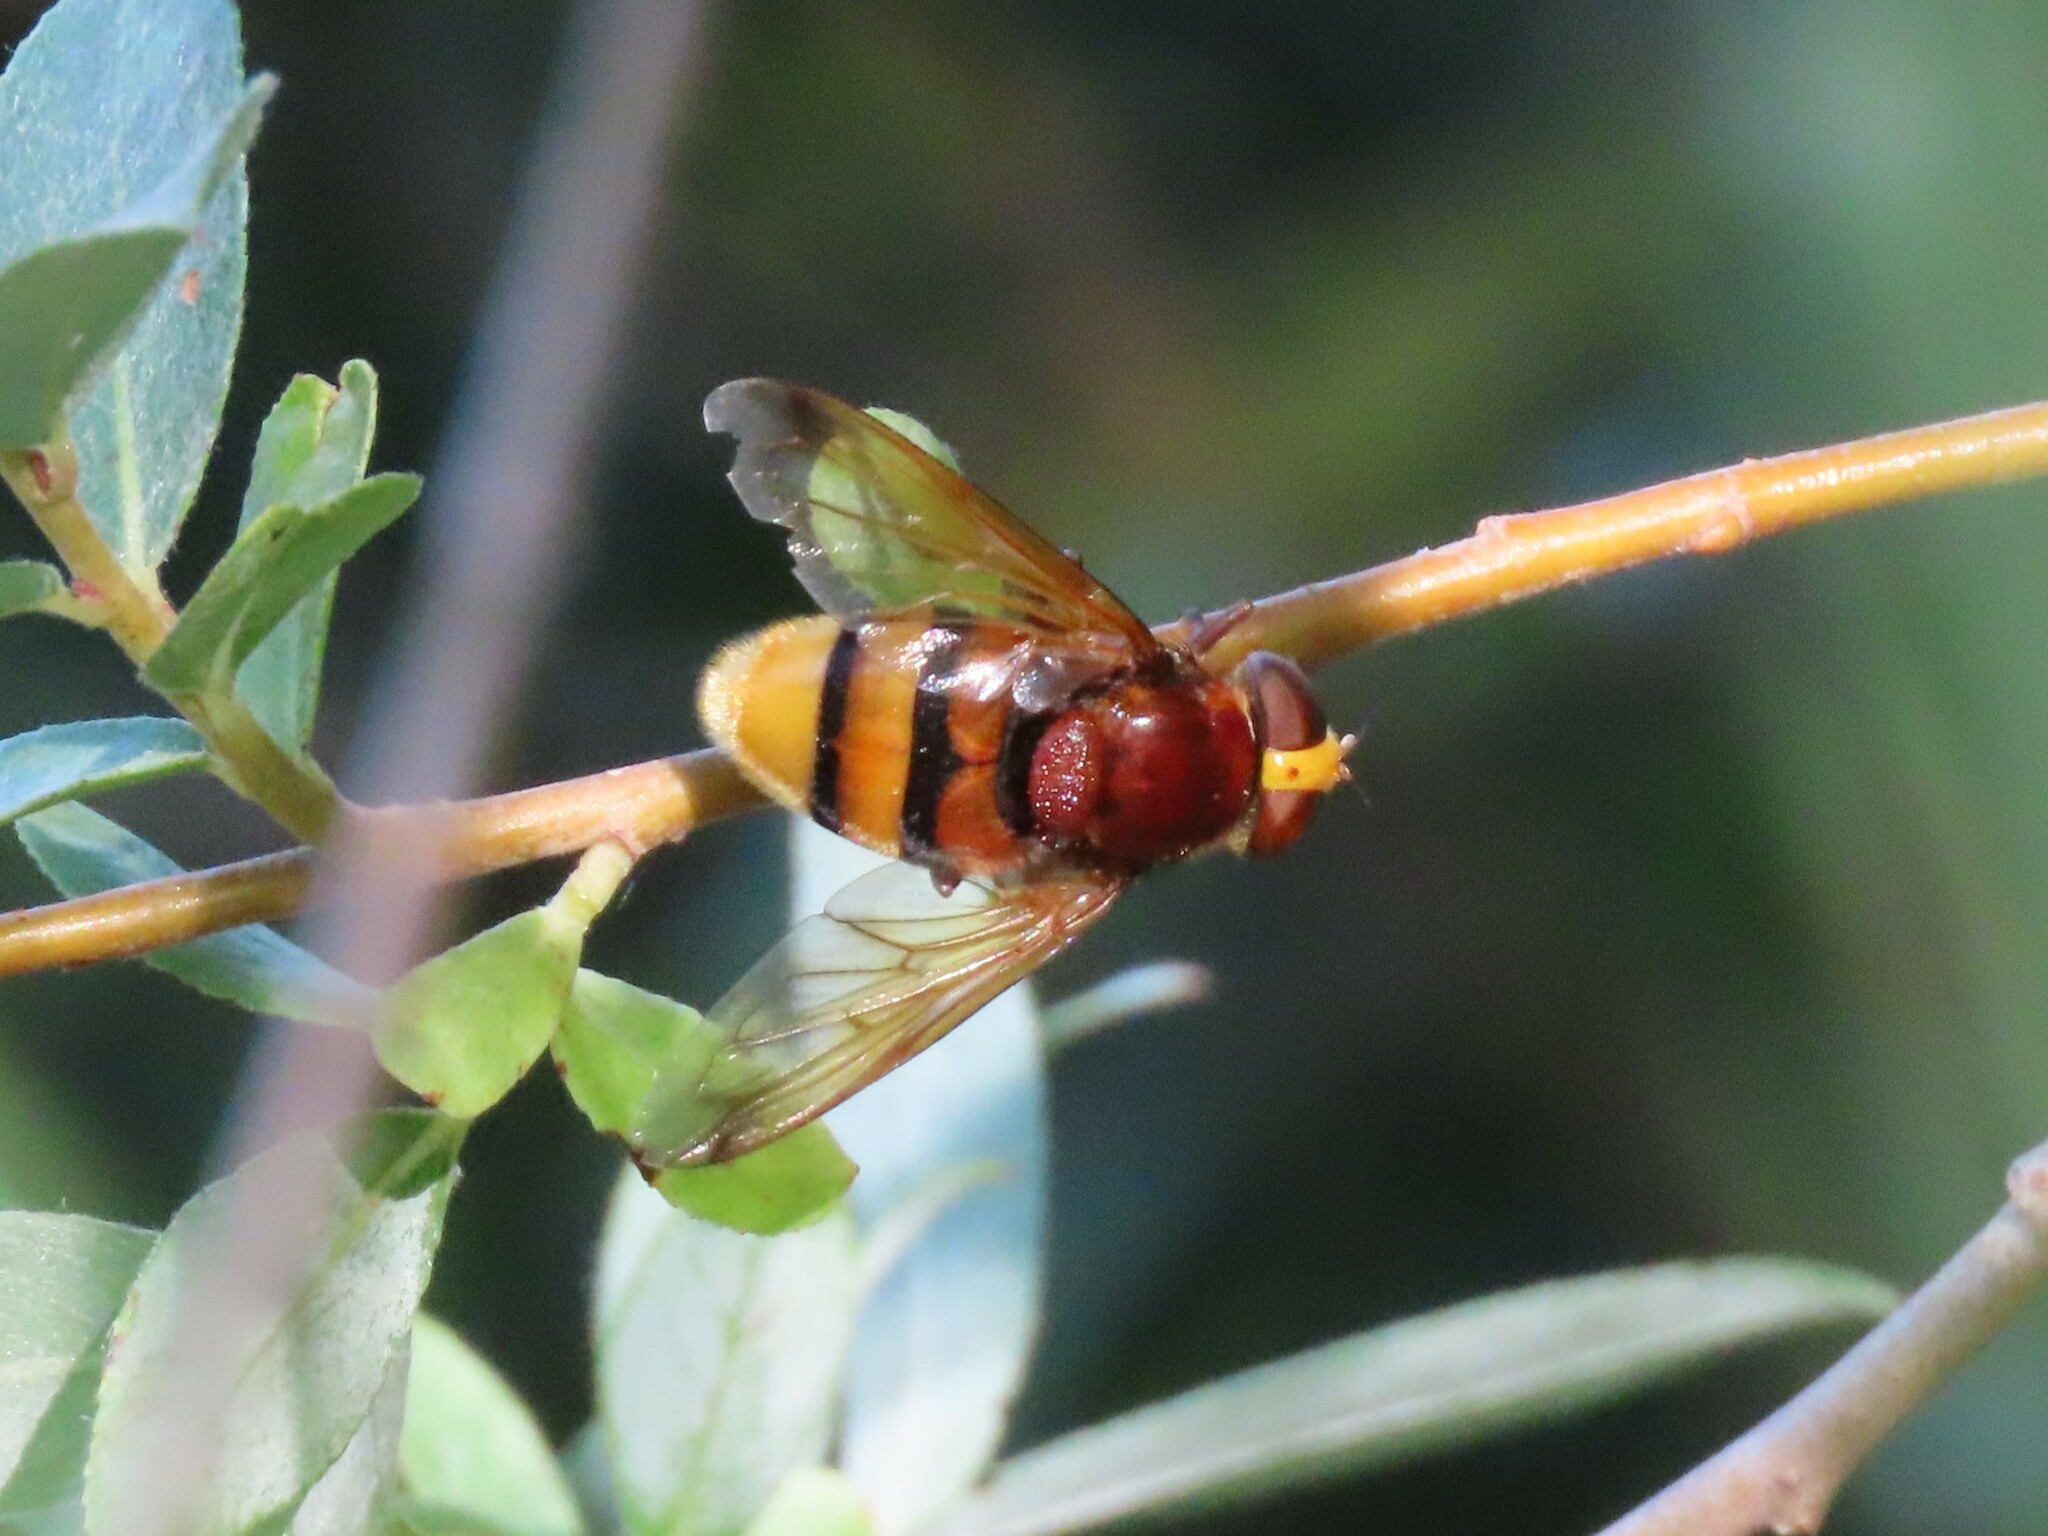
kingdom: Animalia
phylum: Arthropoda
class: Insecta
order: Diptera
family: Syrphidae
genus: Volucella
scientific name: Volucella zonaria
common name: Hornet hoverfly
